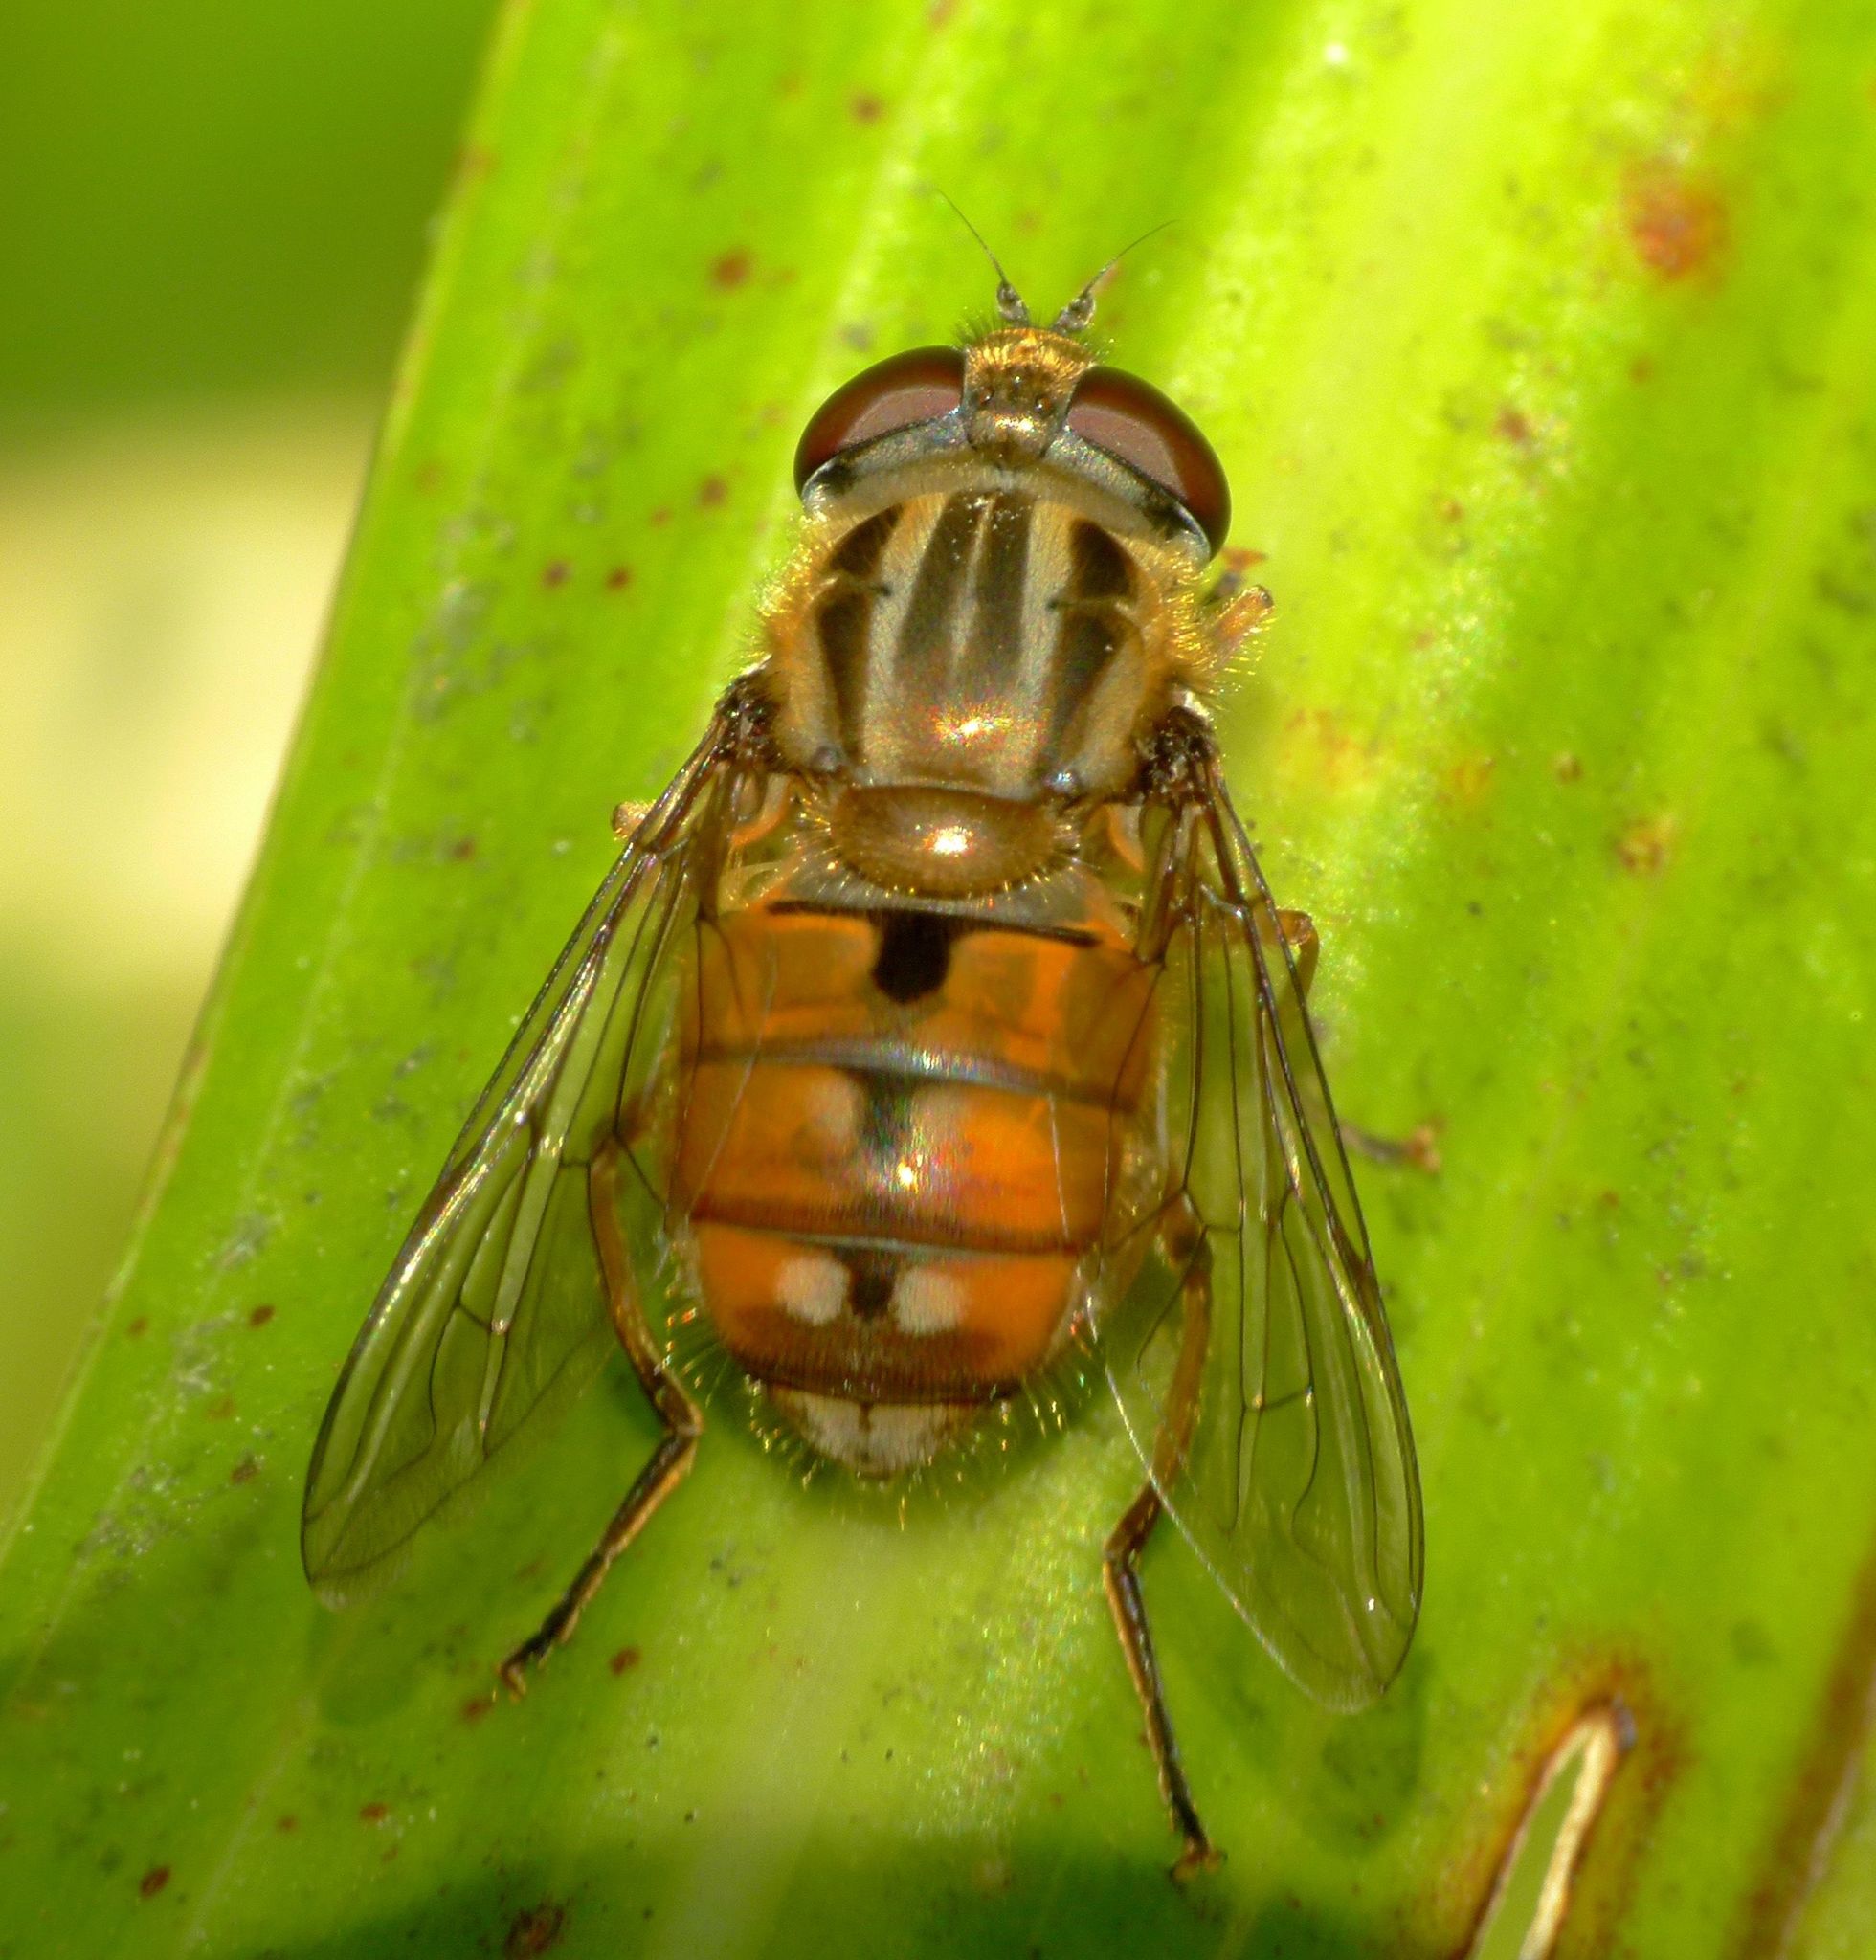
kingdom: Animalia
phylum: Arthropoda
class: Insecta
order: Diptera
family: Syrphidae
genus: Helophilus
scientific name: Helophilus cargilli
